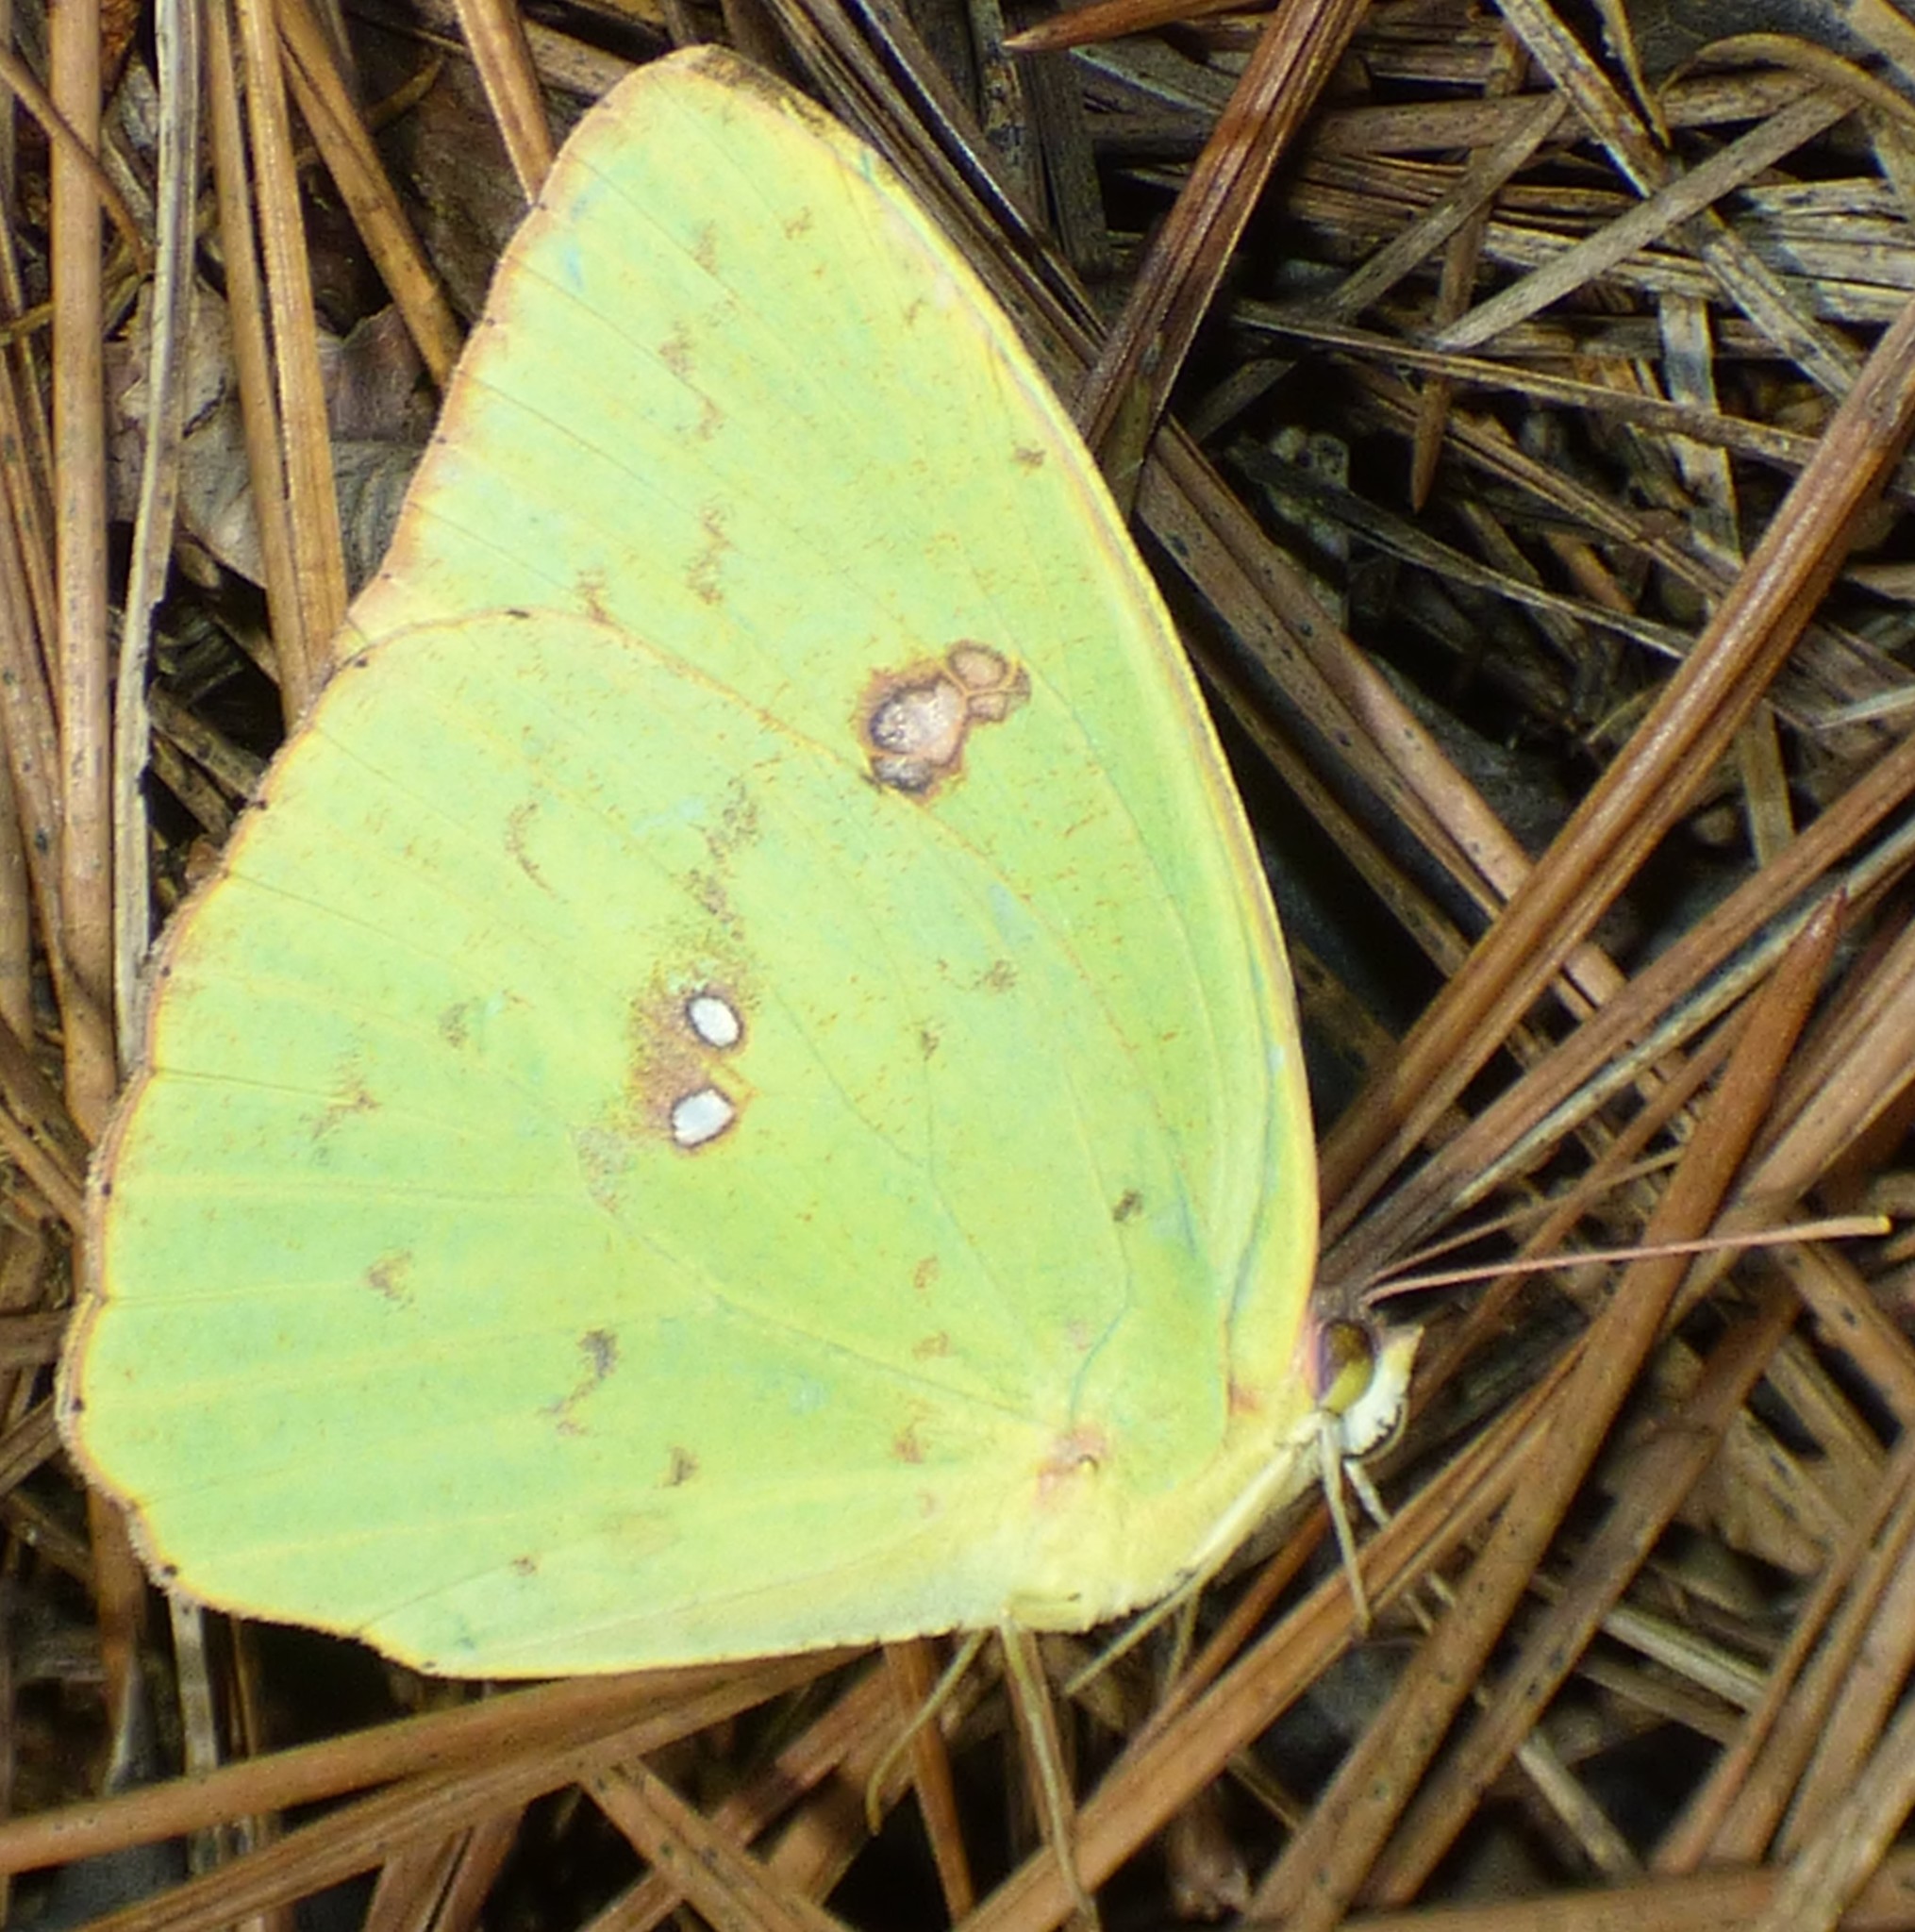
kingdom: Animalia
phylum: Arthropoda
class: Insecta
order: Lepidoptera
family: Pieridae
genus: Phoebis
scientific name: Phoebis sennae
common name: Cloudless sulphur
